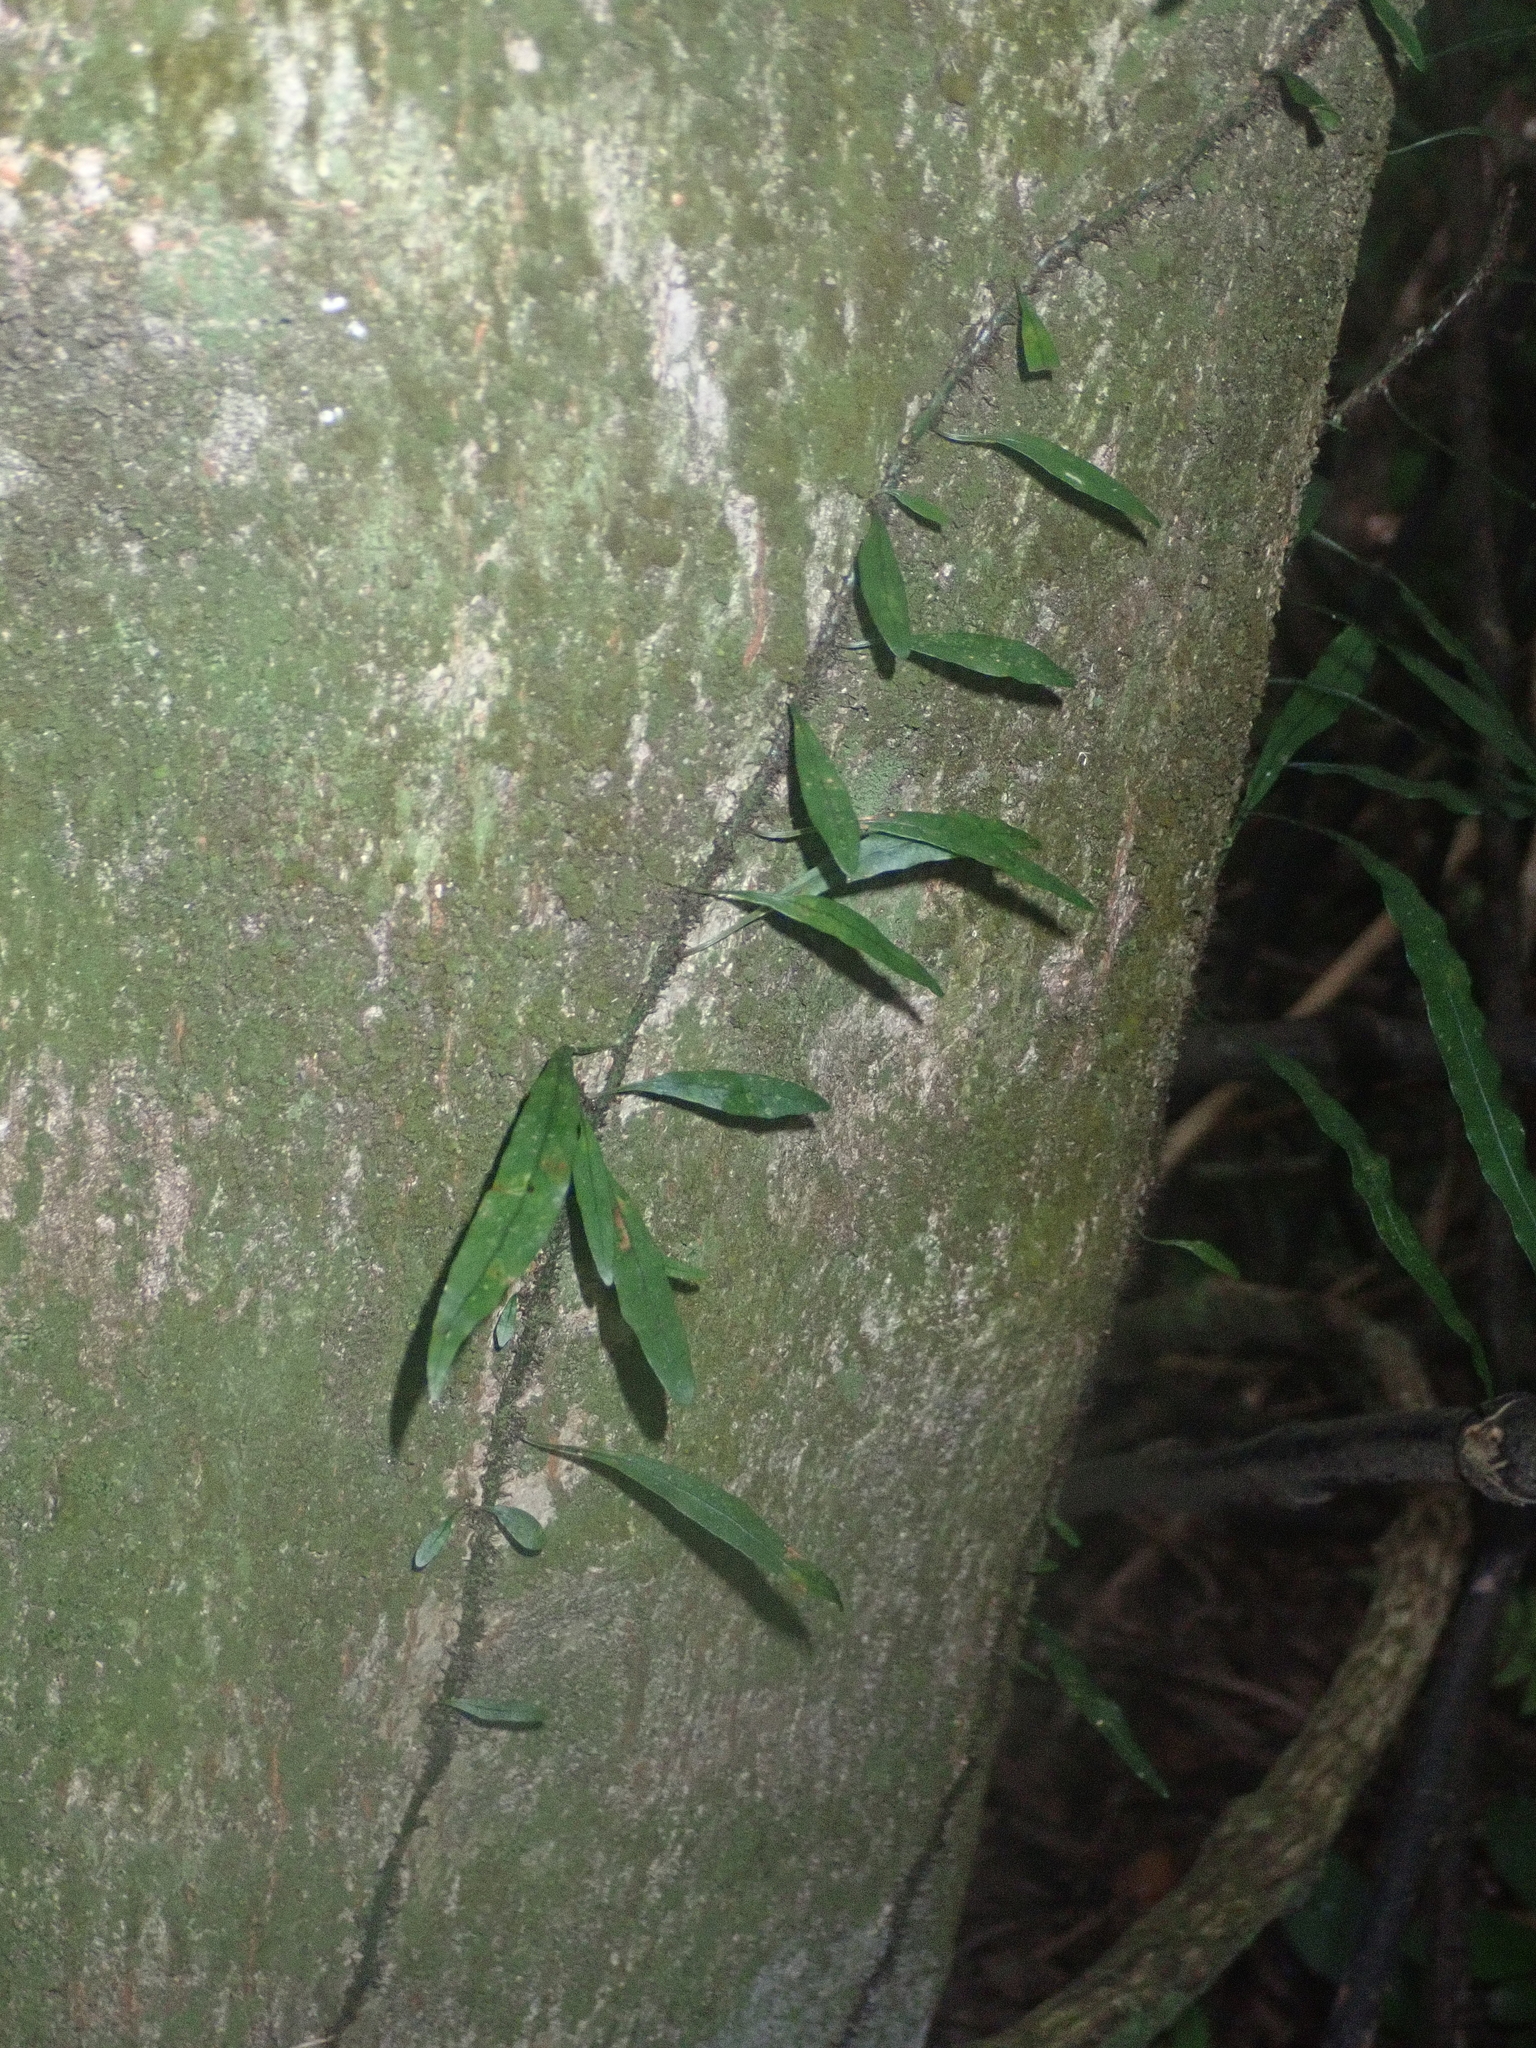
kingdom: Plantae
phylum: Tracheophyta
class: Polypodiopsida
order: Polypodiales
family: Polypodiaceae
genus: Lecanopteris
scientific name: Lecanopteris scandens
